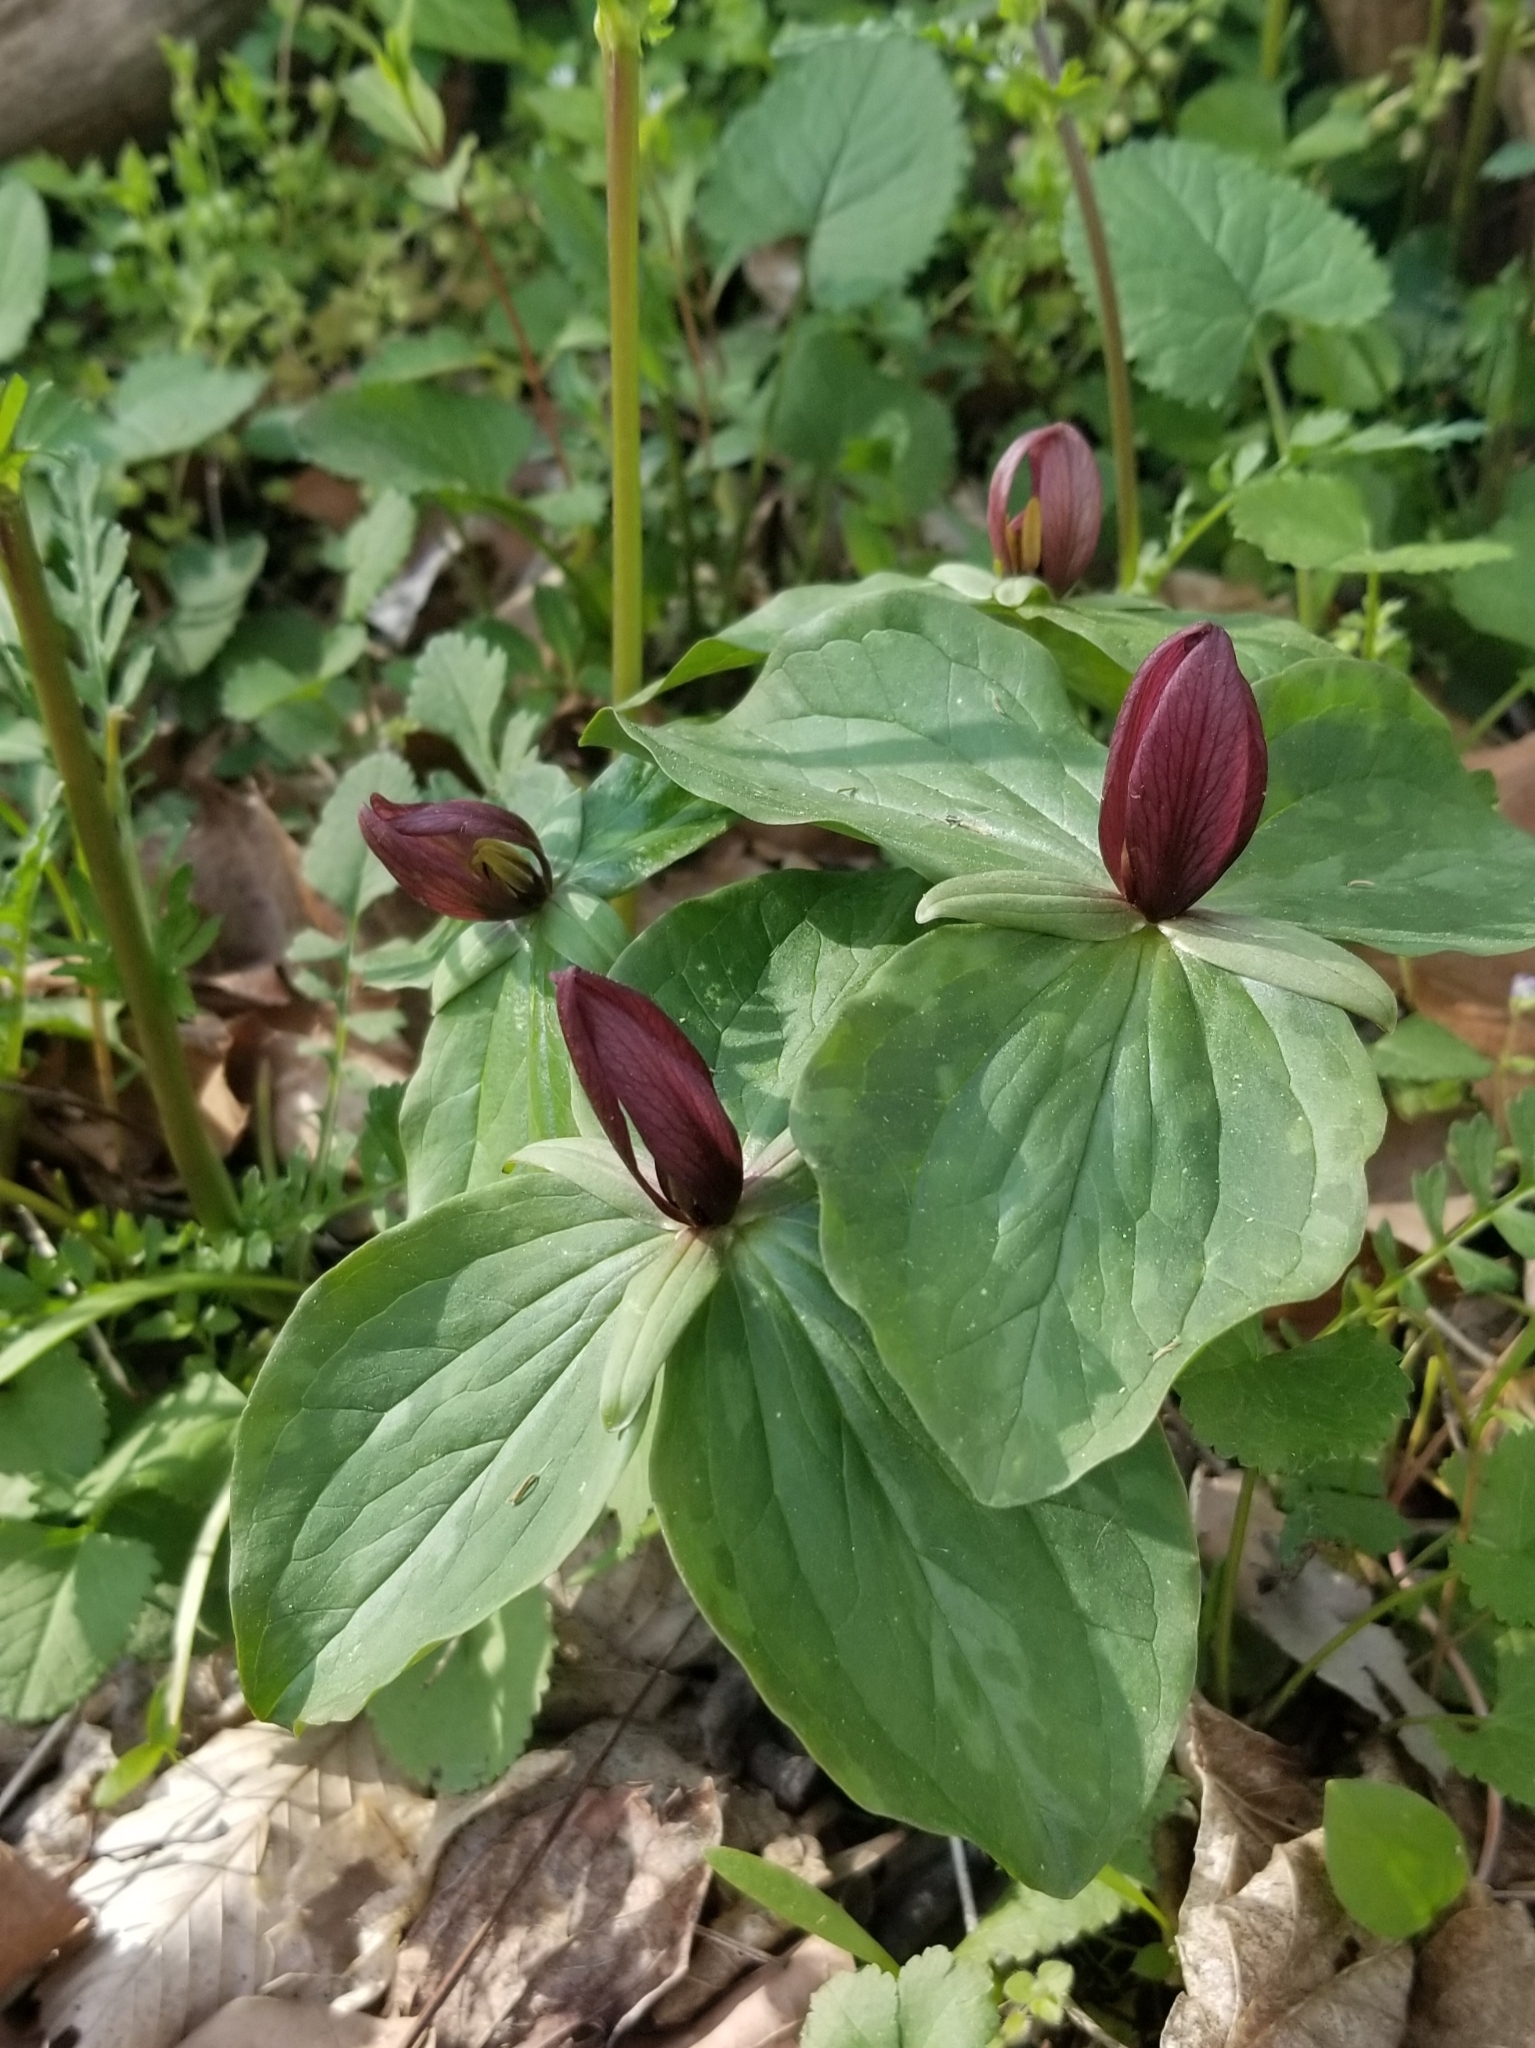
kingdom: Plantae
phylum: Tracheophyta
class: Liliopsida
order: Liliales
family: Melanthiaceae
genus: Trillium
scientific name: Trillium sessile
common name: Sessile trillium
